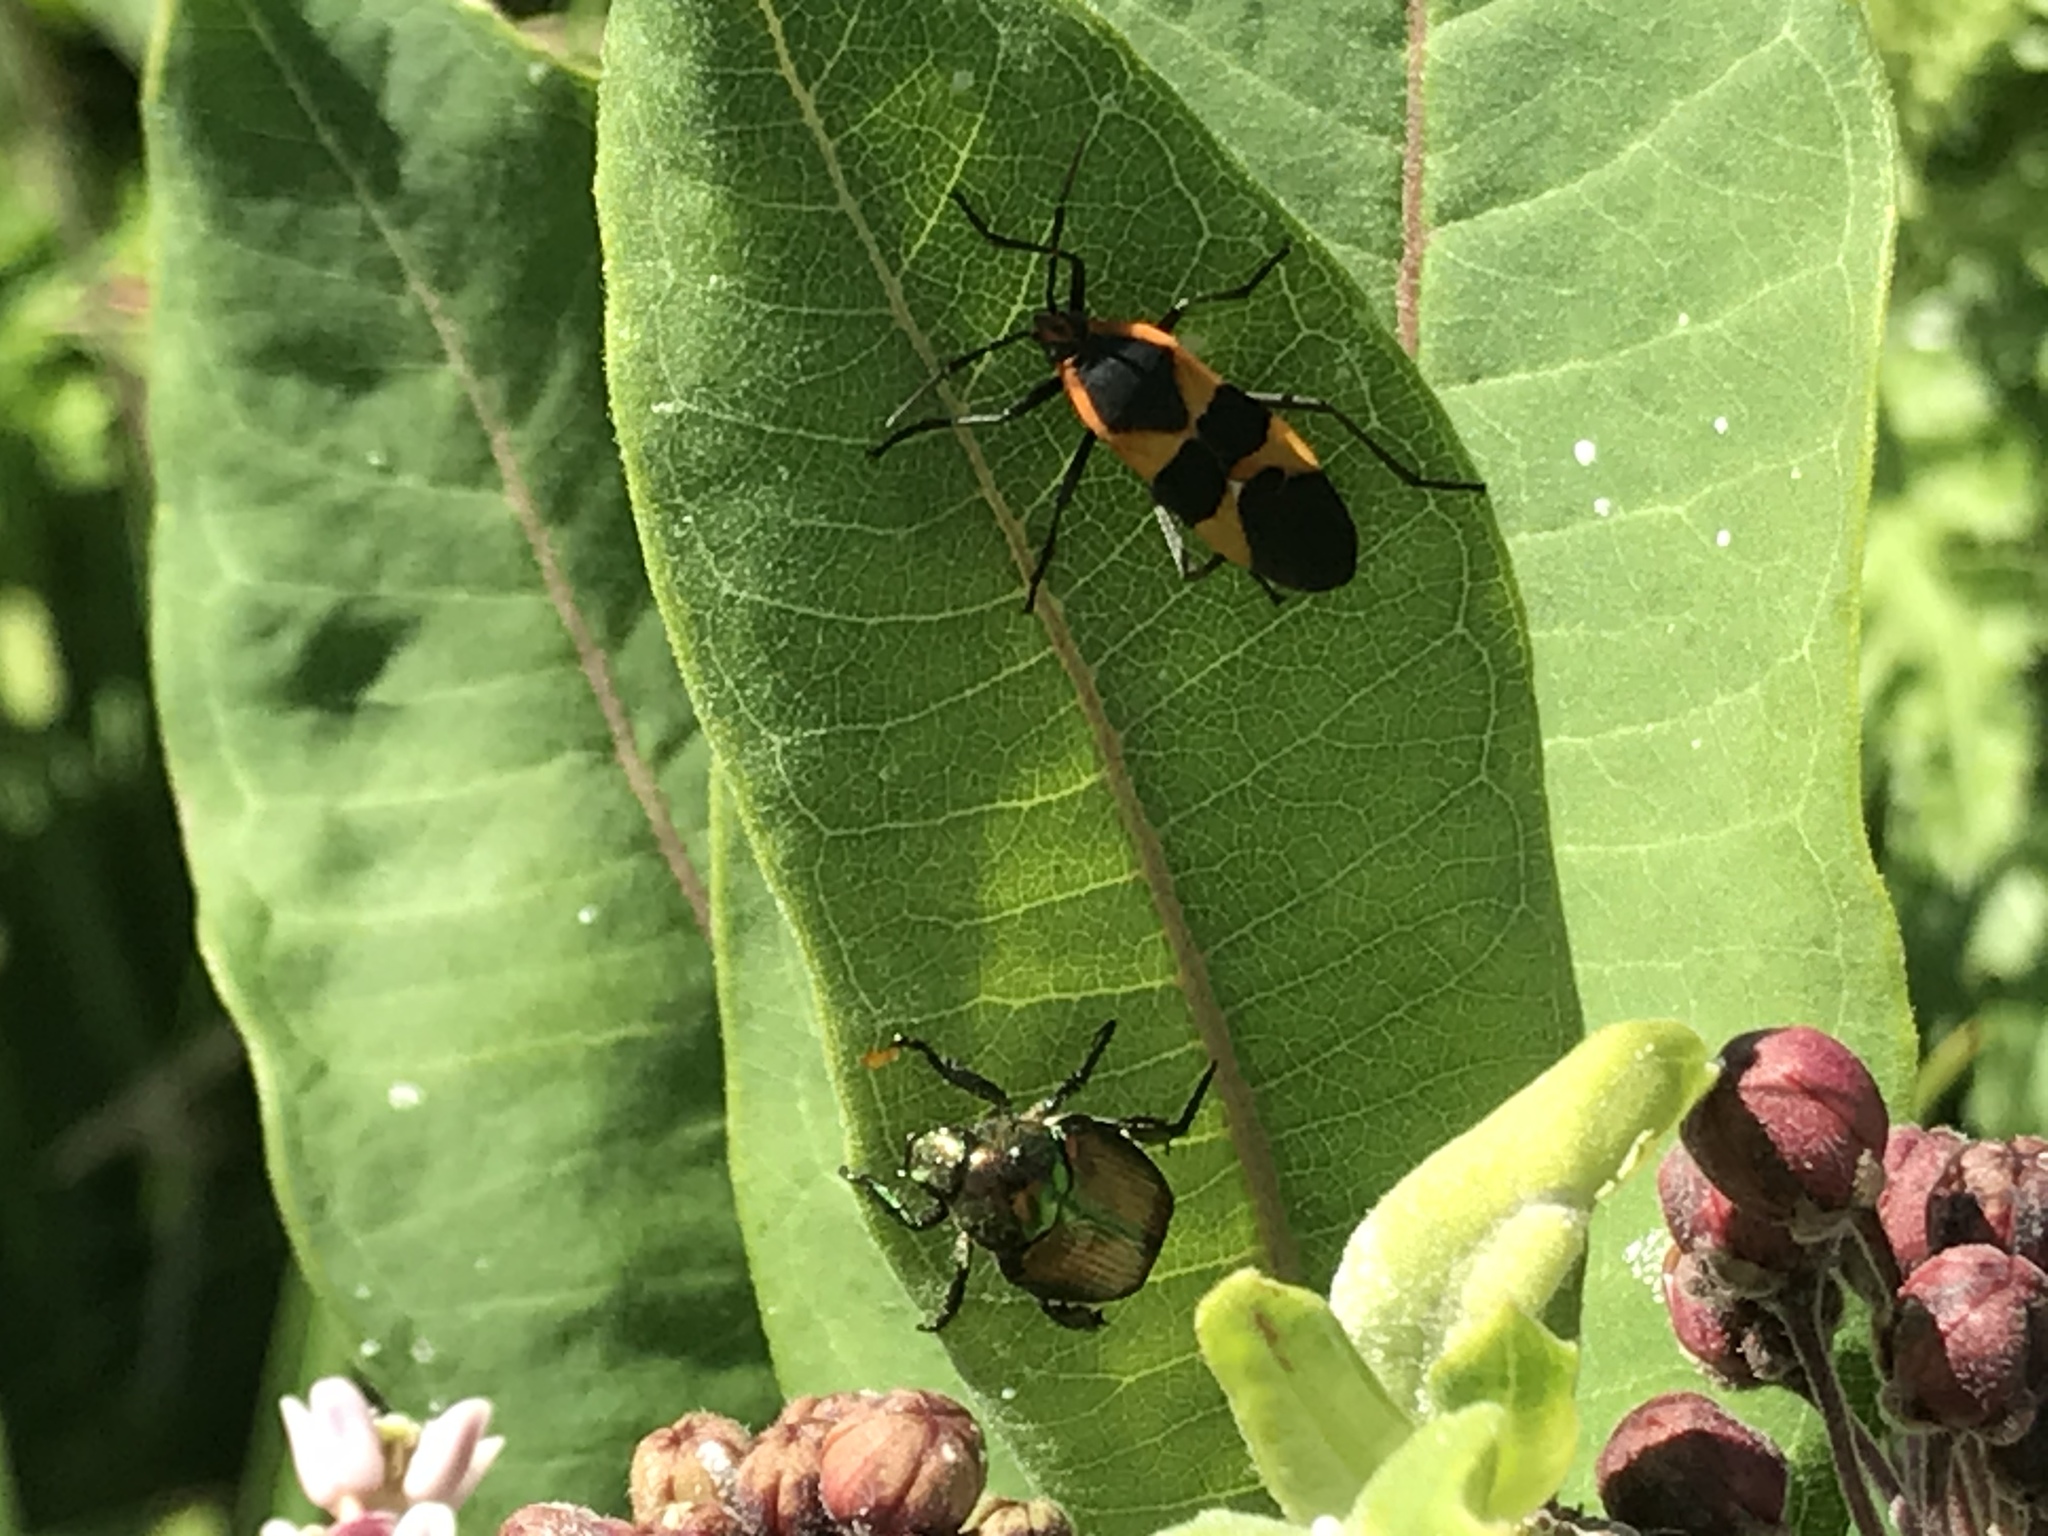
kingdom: Animalia
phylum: Arthropoda
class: Insecta
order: Hemiptera
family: Lygaeidae
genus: Oncopeltus
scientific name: Oncopeltus fasciatus
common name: Large milkweed bug
